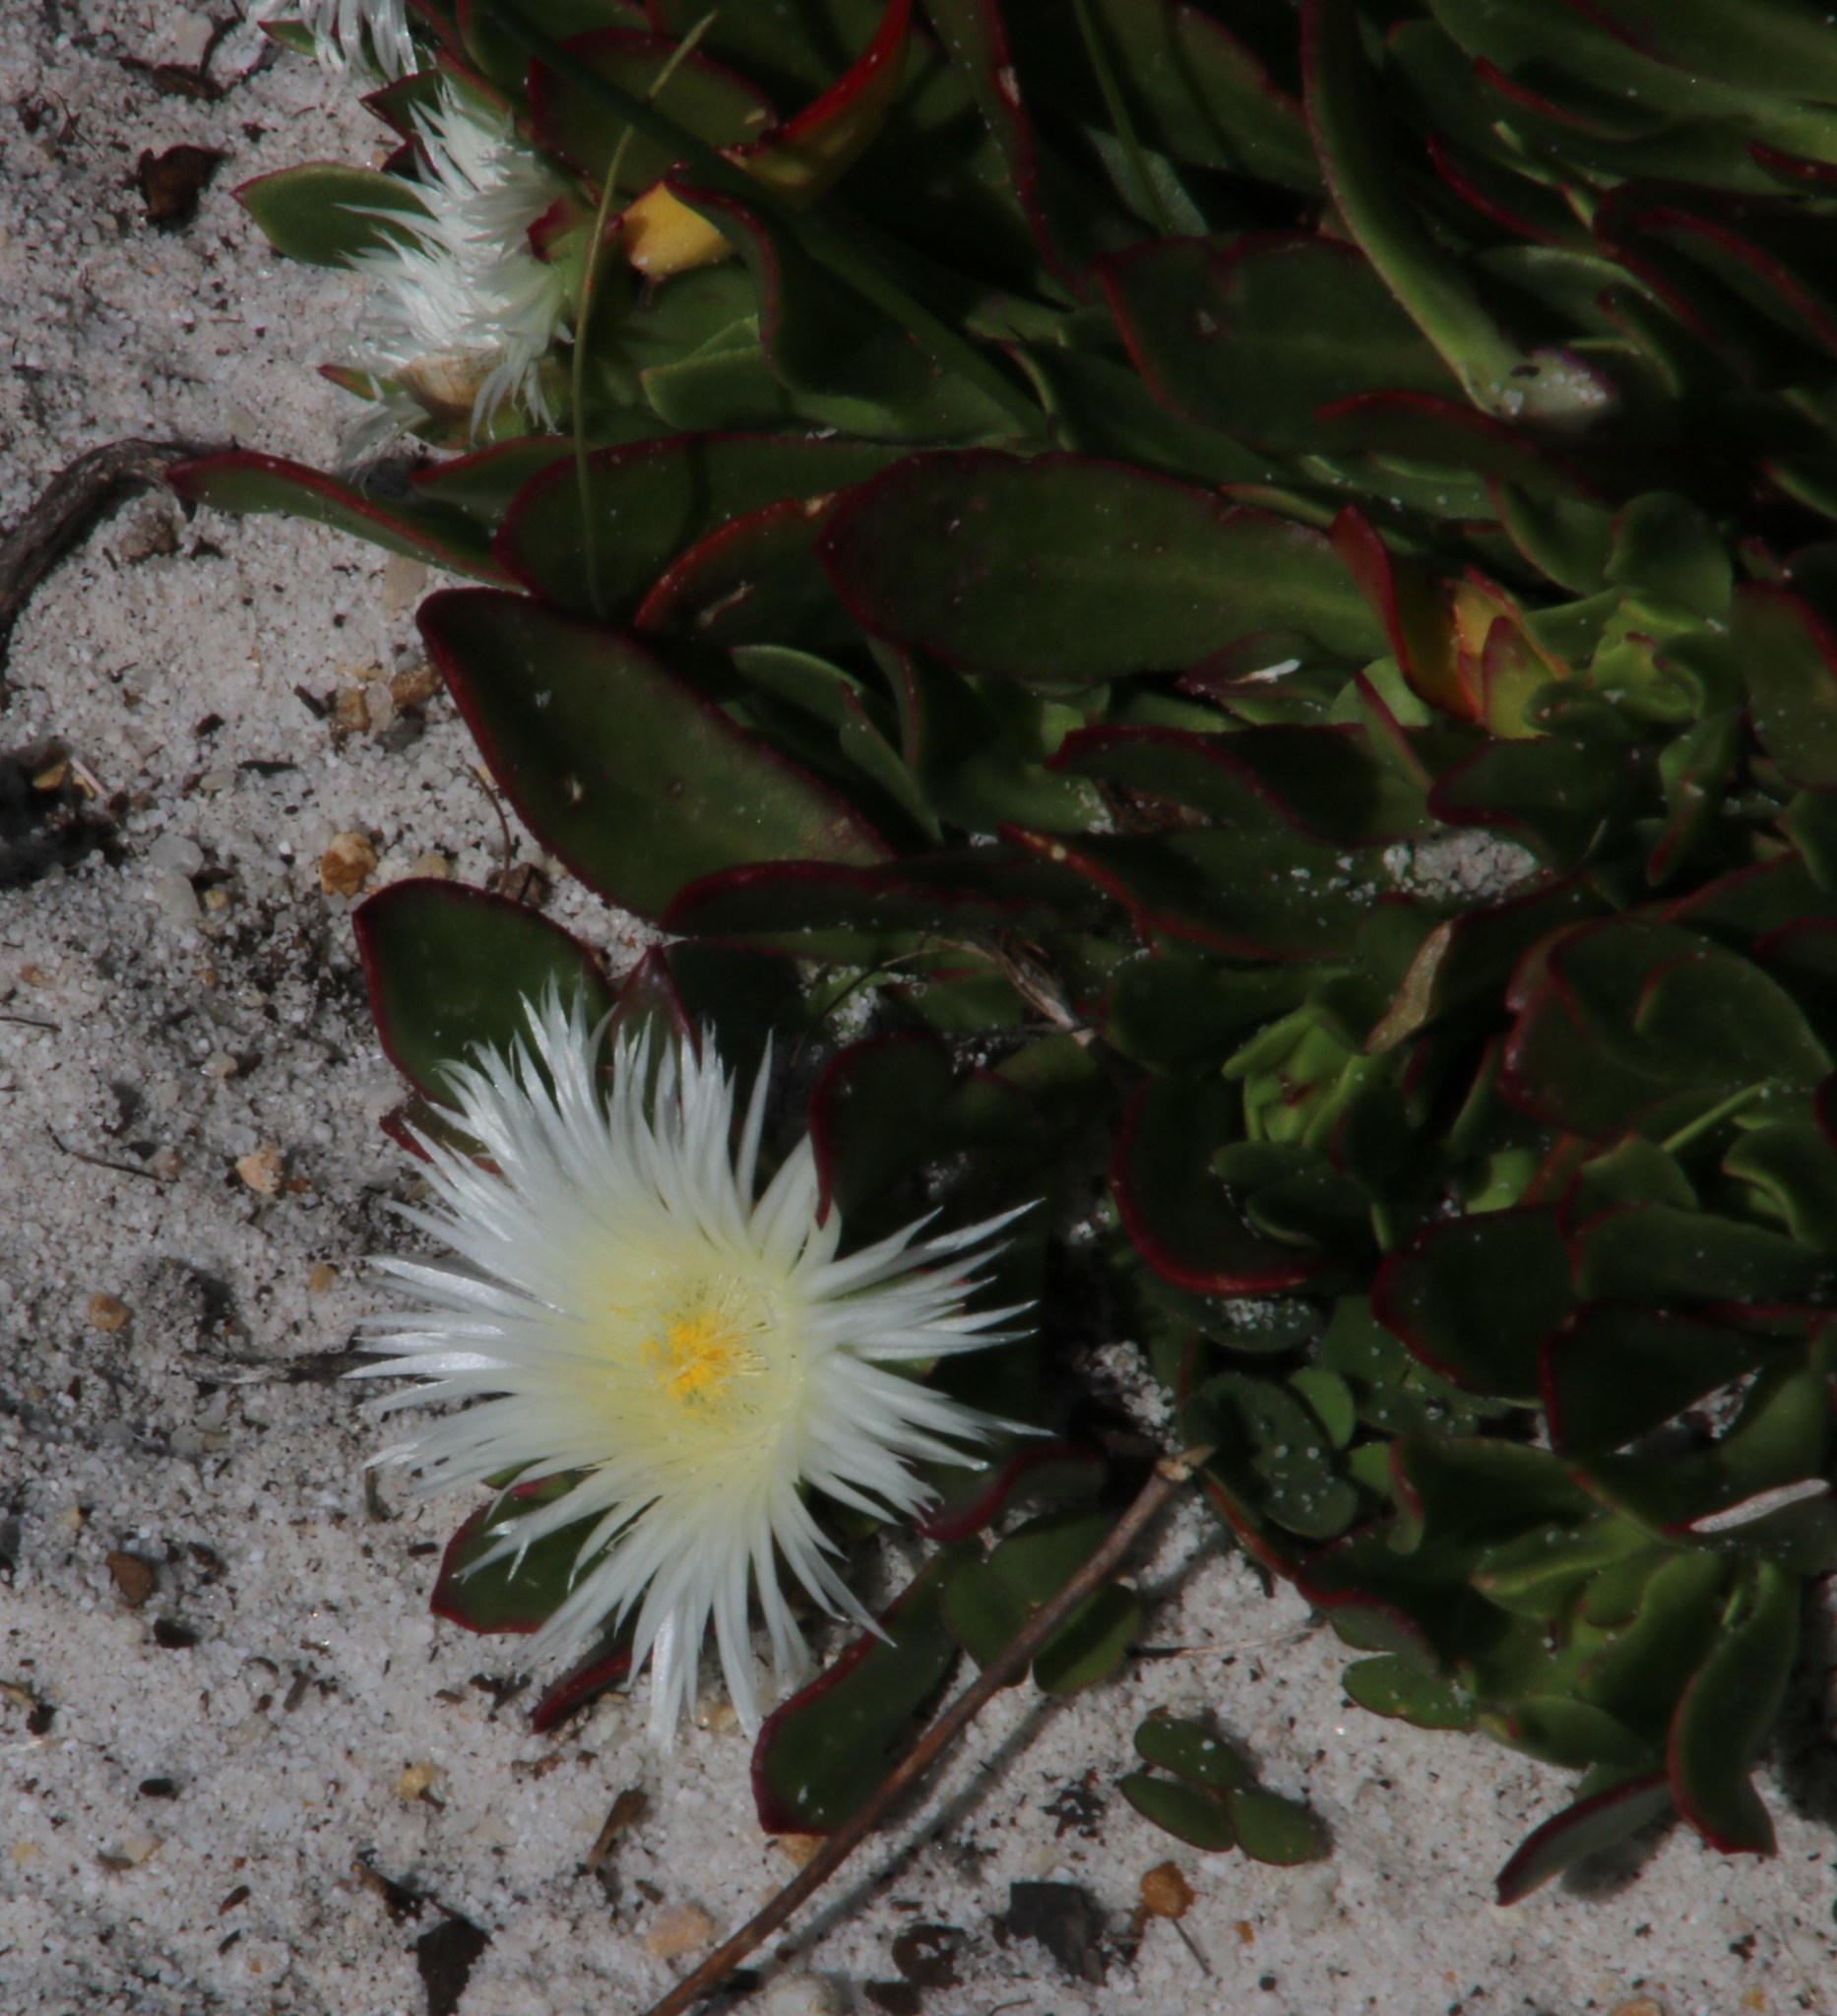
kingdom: Plantae
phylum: Tracheophyta
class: Magnoliopsida
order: Caryophyllales
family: Aizoaceae
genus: Skiatophytum
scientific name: Skiatophytum tripolium
